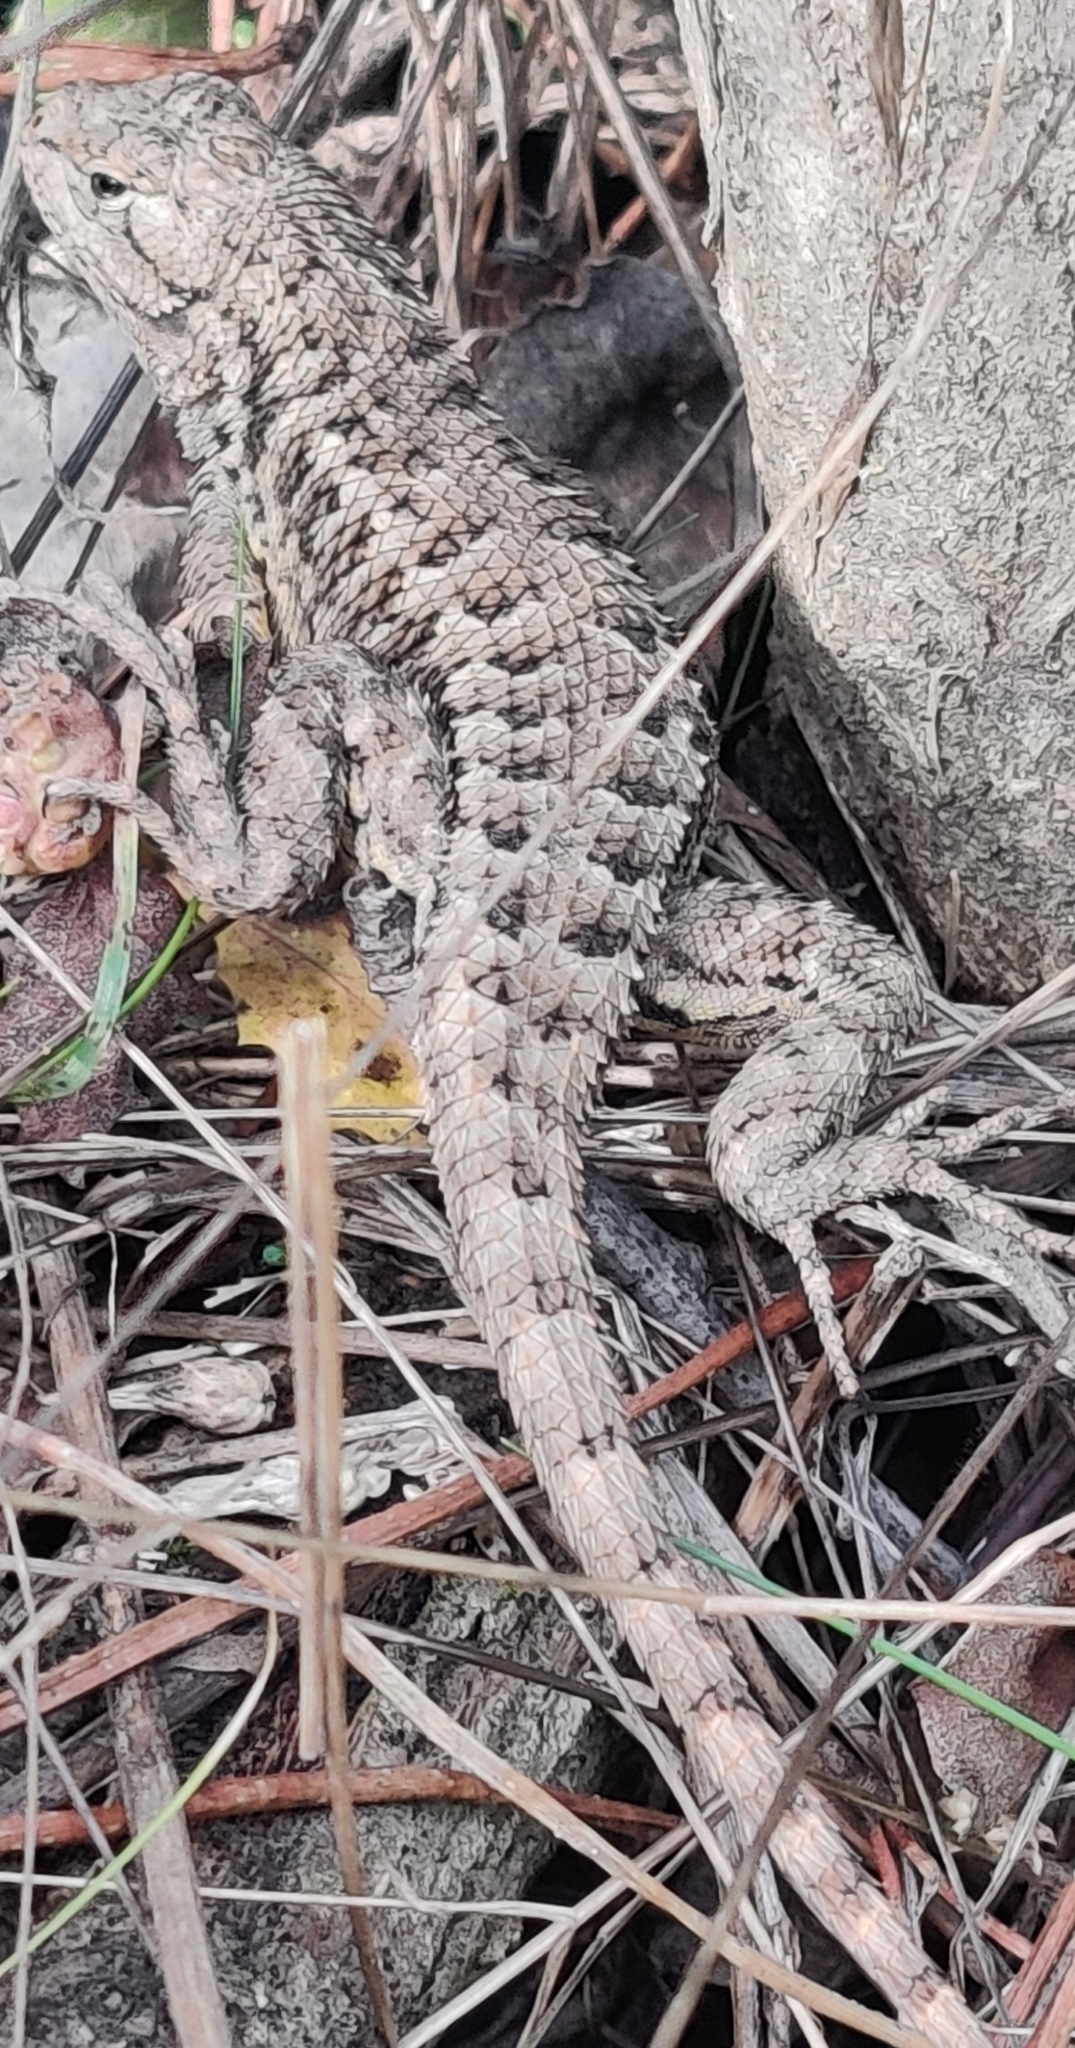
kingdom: Animalia
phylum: Chordata
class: Squamata
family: Phrynosomatidae
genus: Sceloporus
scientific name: Sceloporus occidentalis
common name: Western fence lizard
